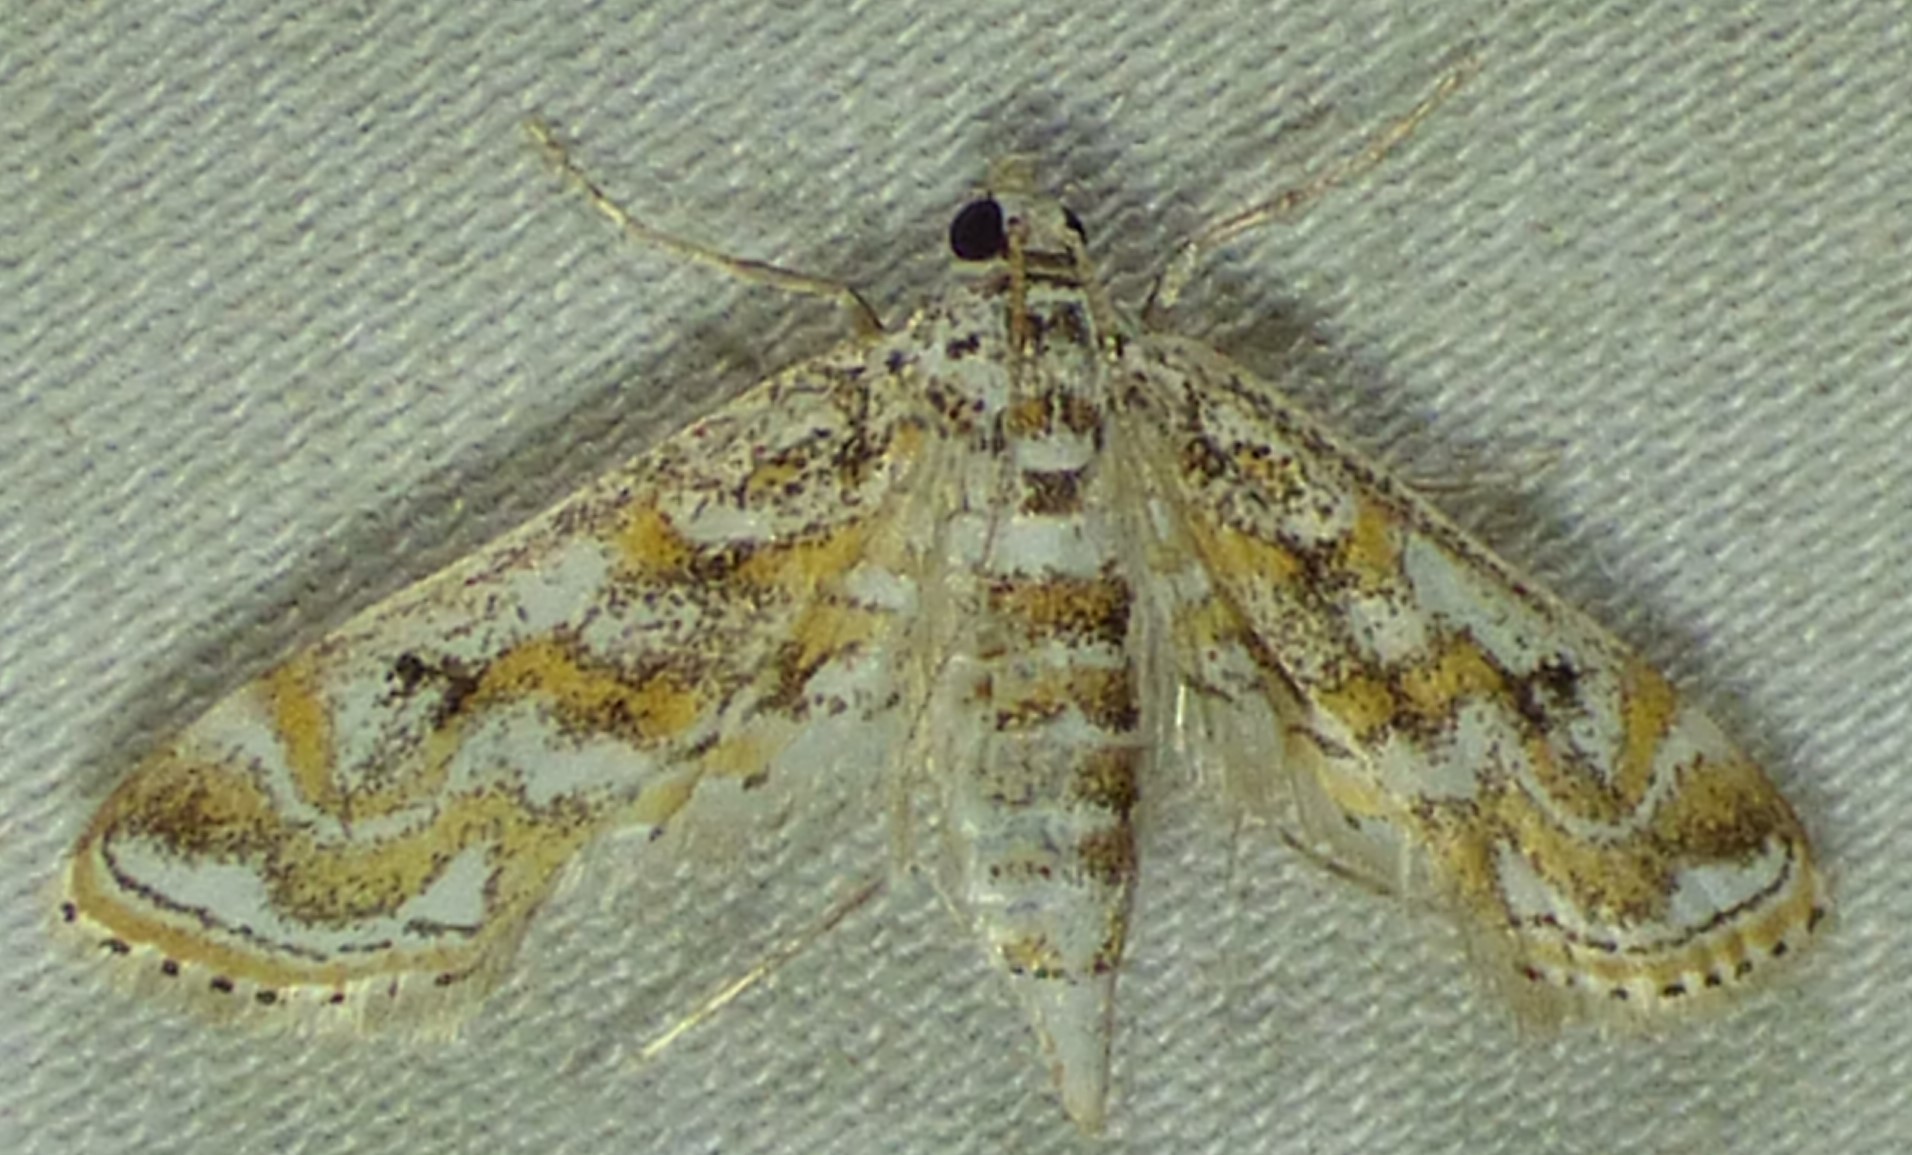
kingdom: Animalia
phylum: Arthropoda
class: Insecta
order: Lepidoptera
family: Crambidae
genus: Parapoynx
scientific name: Parapoynx diminutalis
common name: Hydrilla leafcutter
